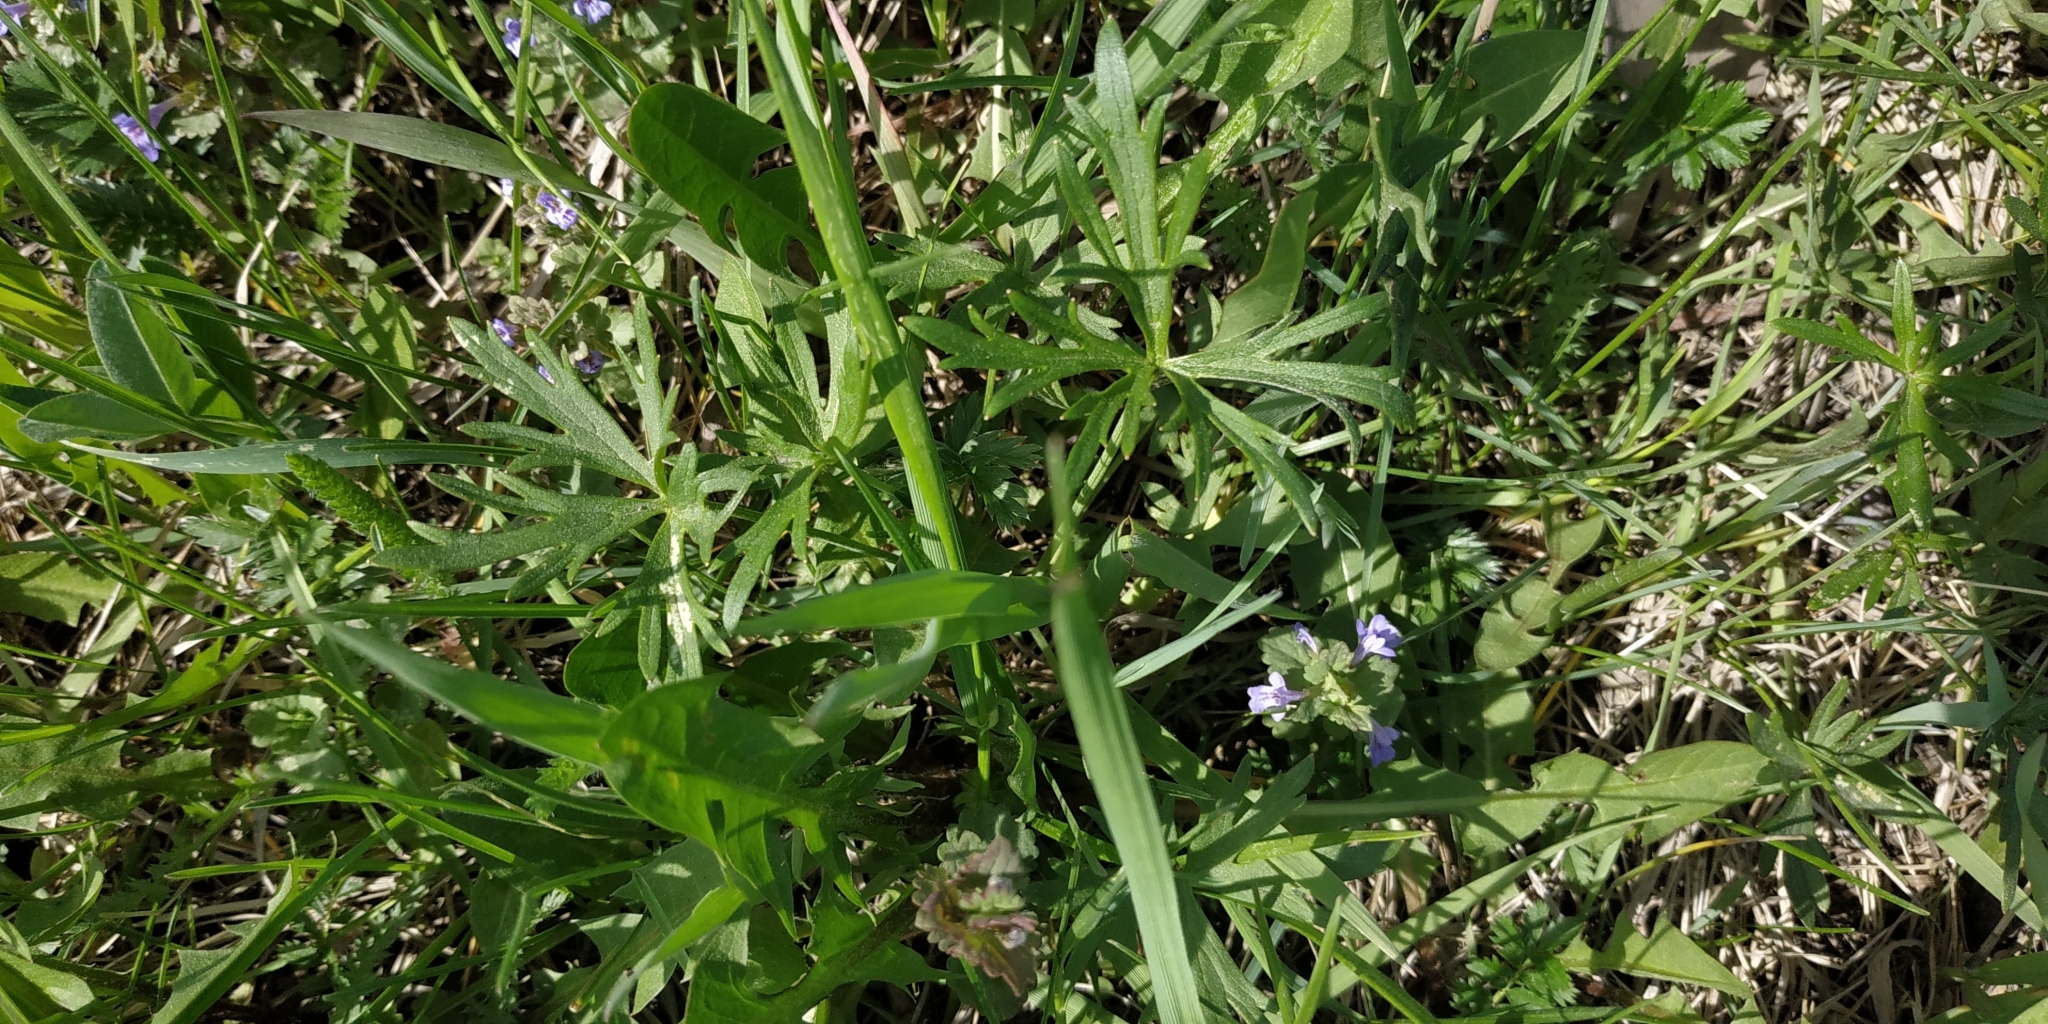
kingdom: Plantae
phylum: Tracheophyta
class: Magnoliopsida
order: Ranunculales
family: Ranunculaceae
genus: Ranunculus
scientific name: Ranunculus polyanthemos
